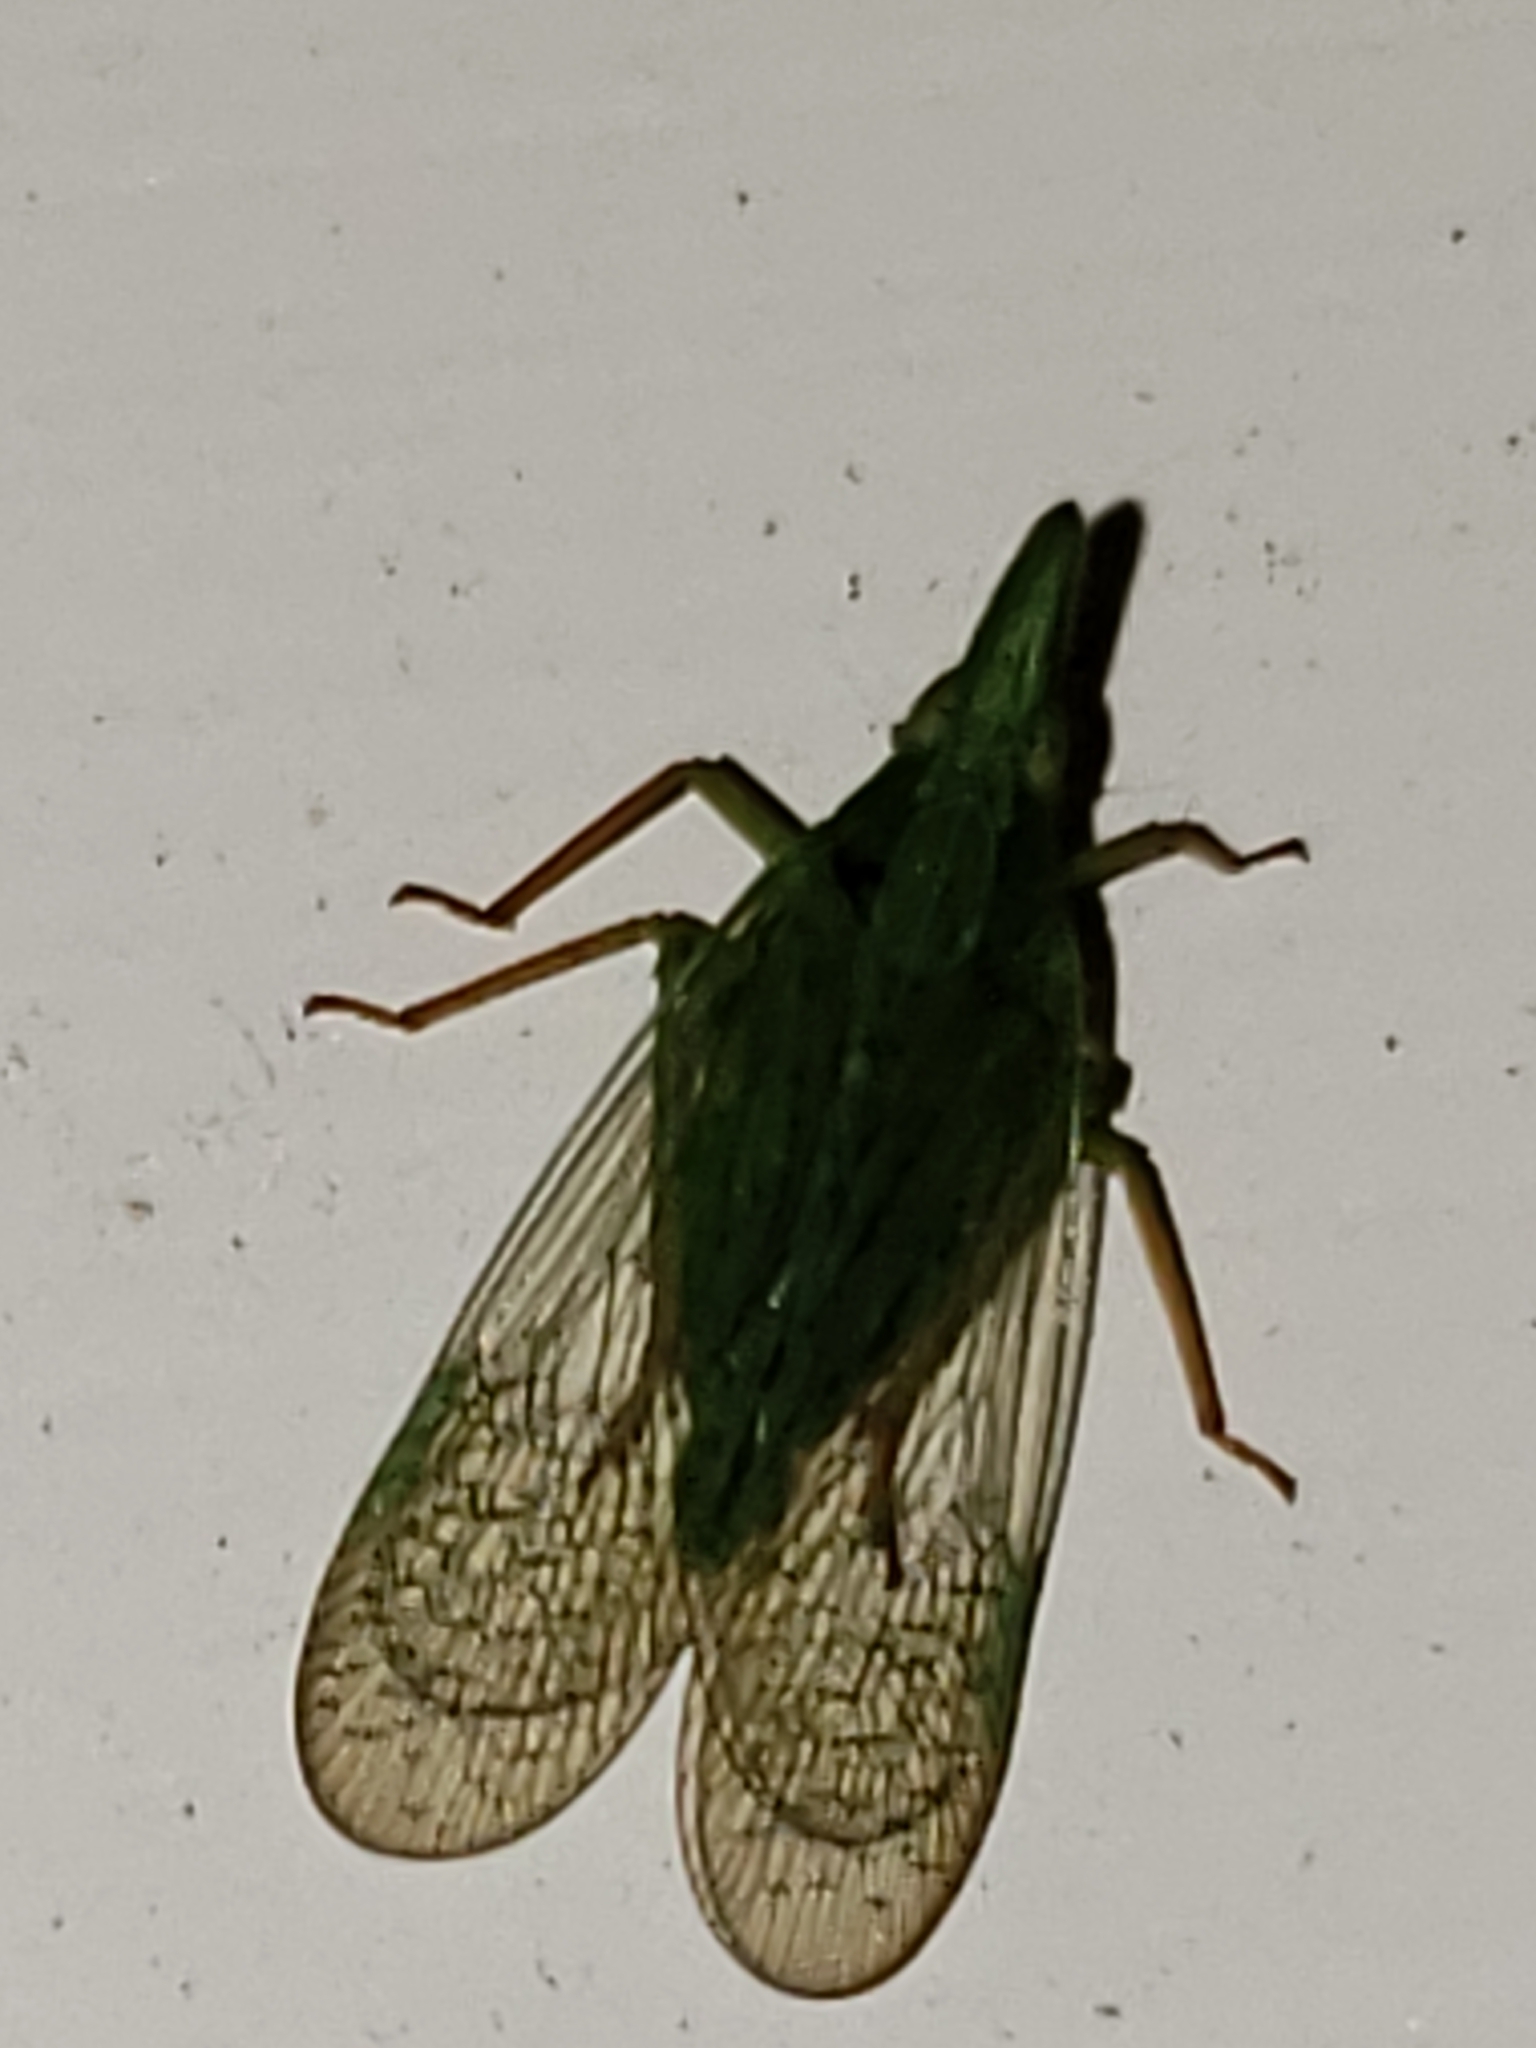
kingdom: Animalia
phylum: Arthropoda
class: Insecta
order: Hemiptera
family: Dictyopharidae
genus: Rhynchomitra
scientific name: Rhynchomitra microrhina
